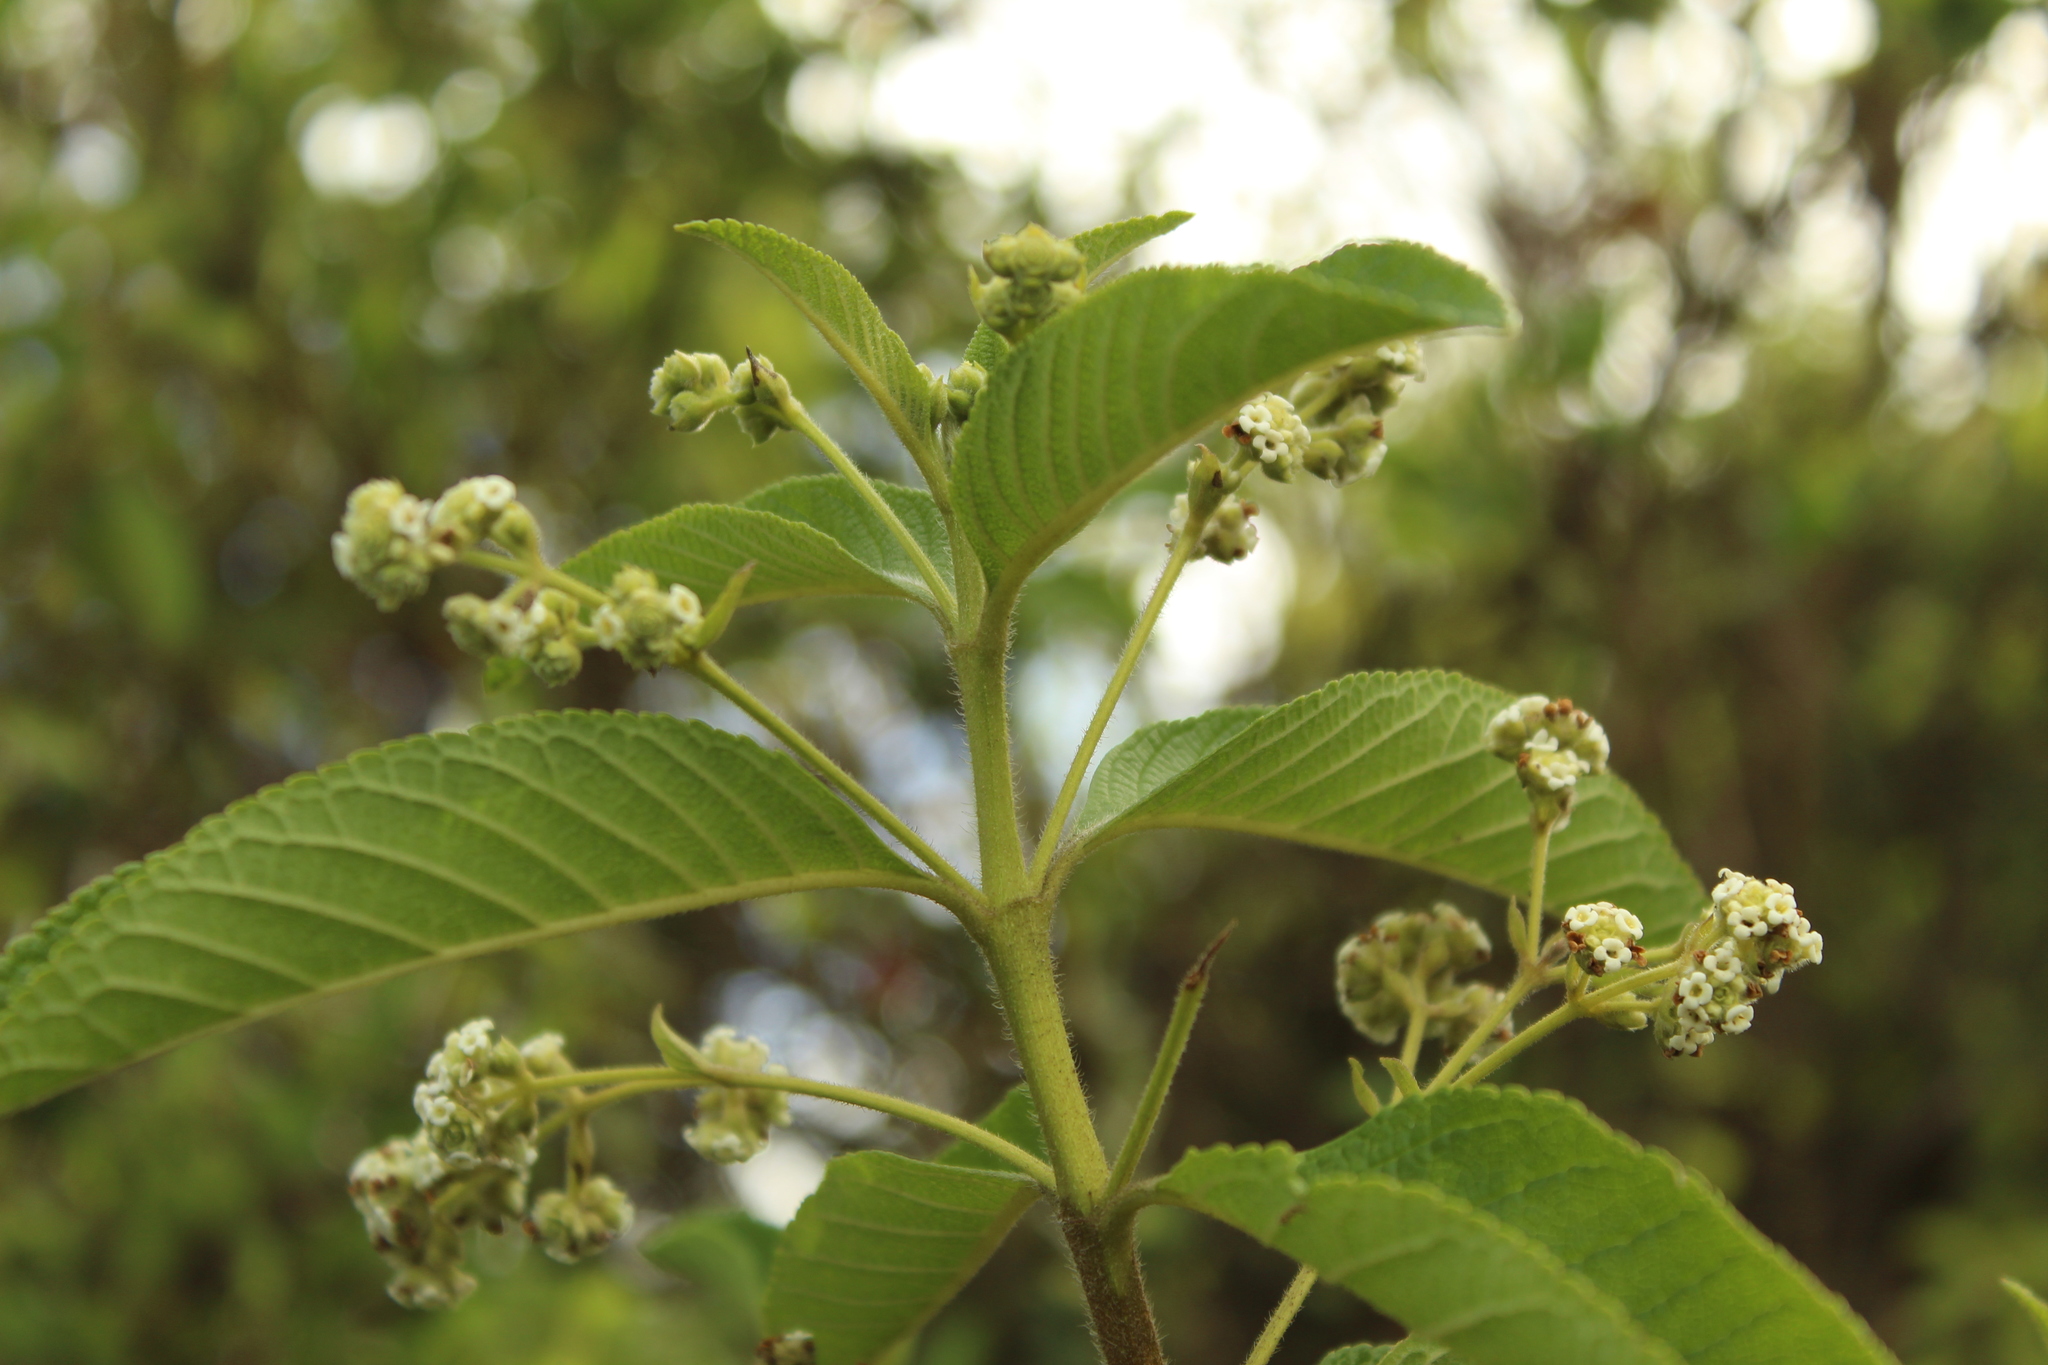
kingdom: Plantae
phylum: Tracheophyta
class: Magnoliopsida
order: Lamiales
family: Verbenaceae
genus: Lippia
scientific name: Lippia hirsuta
